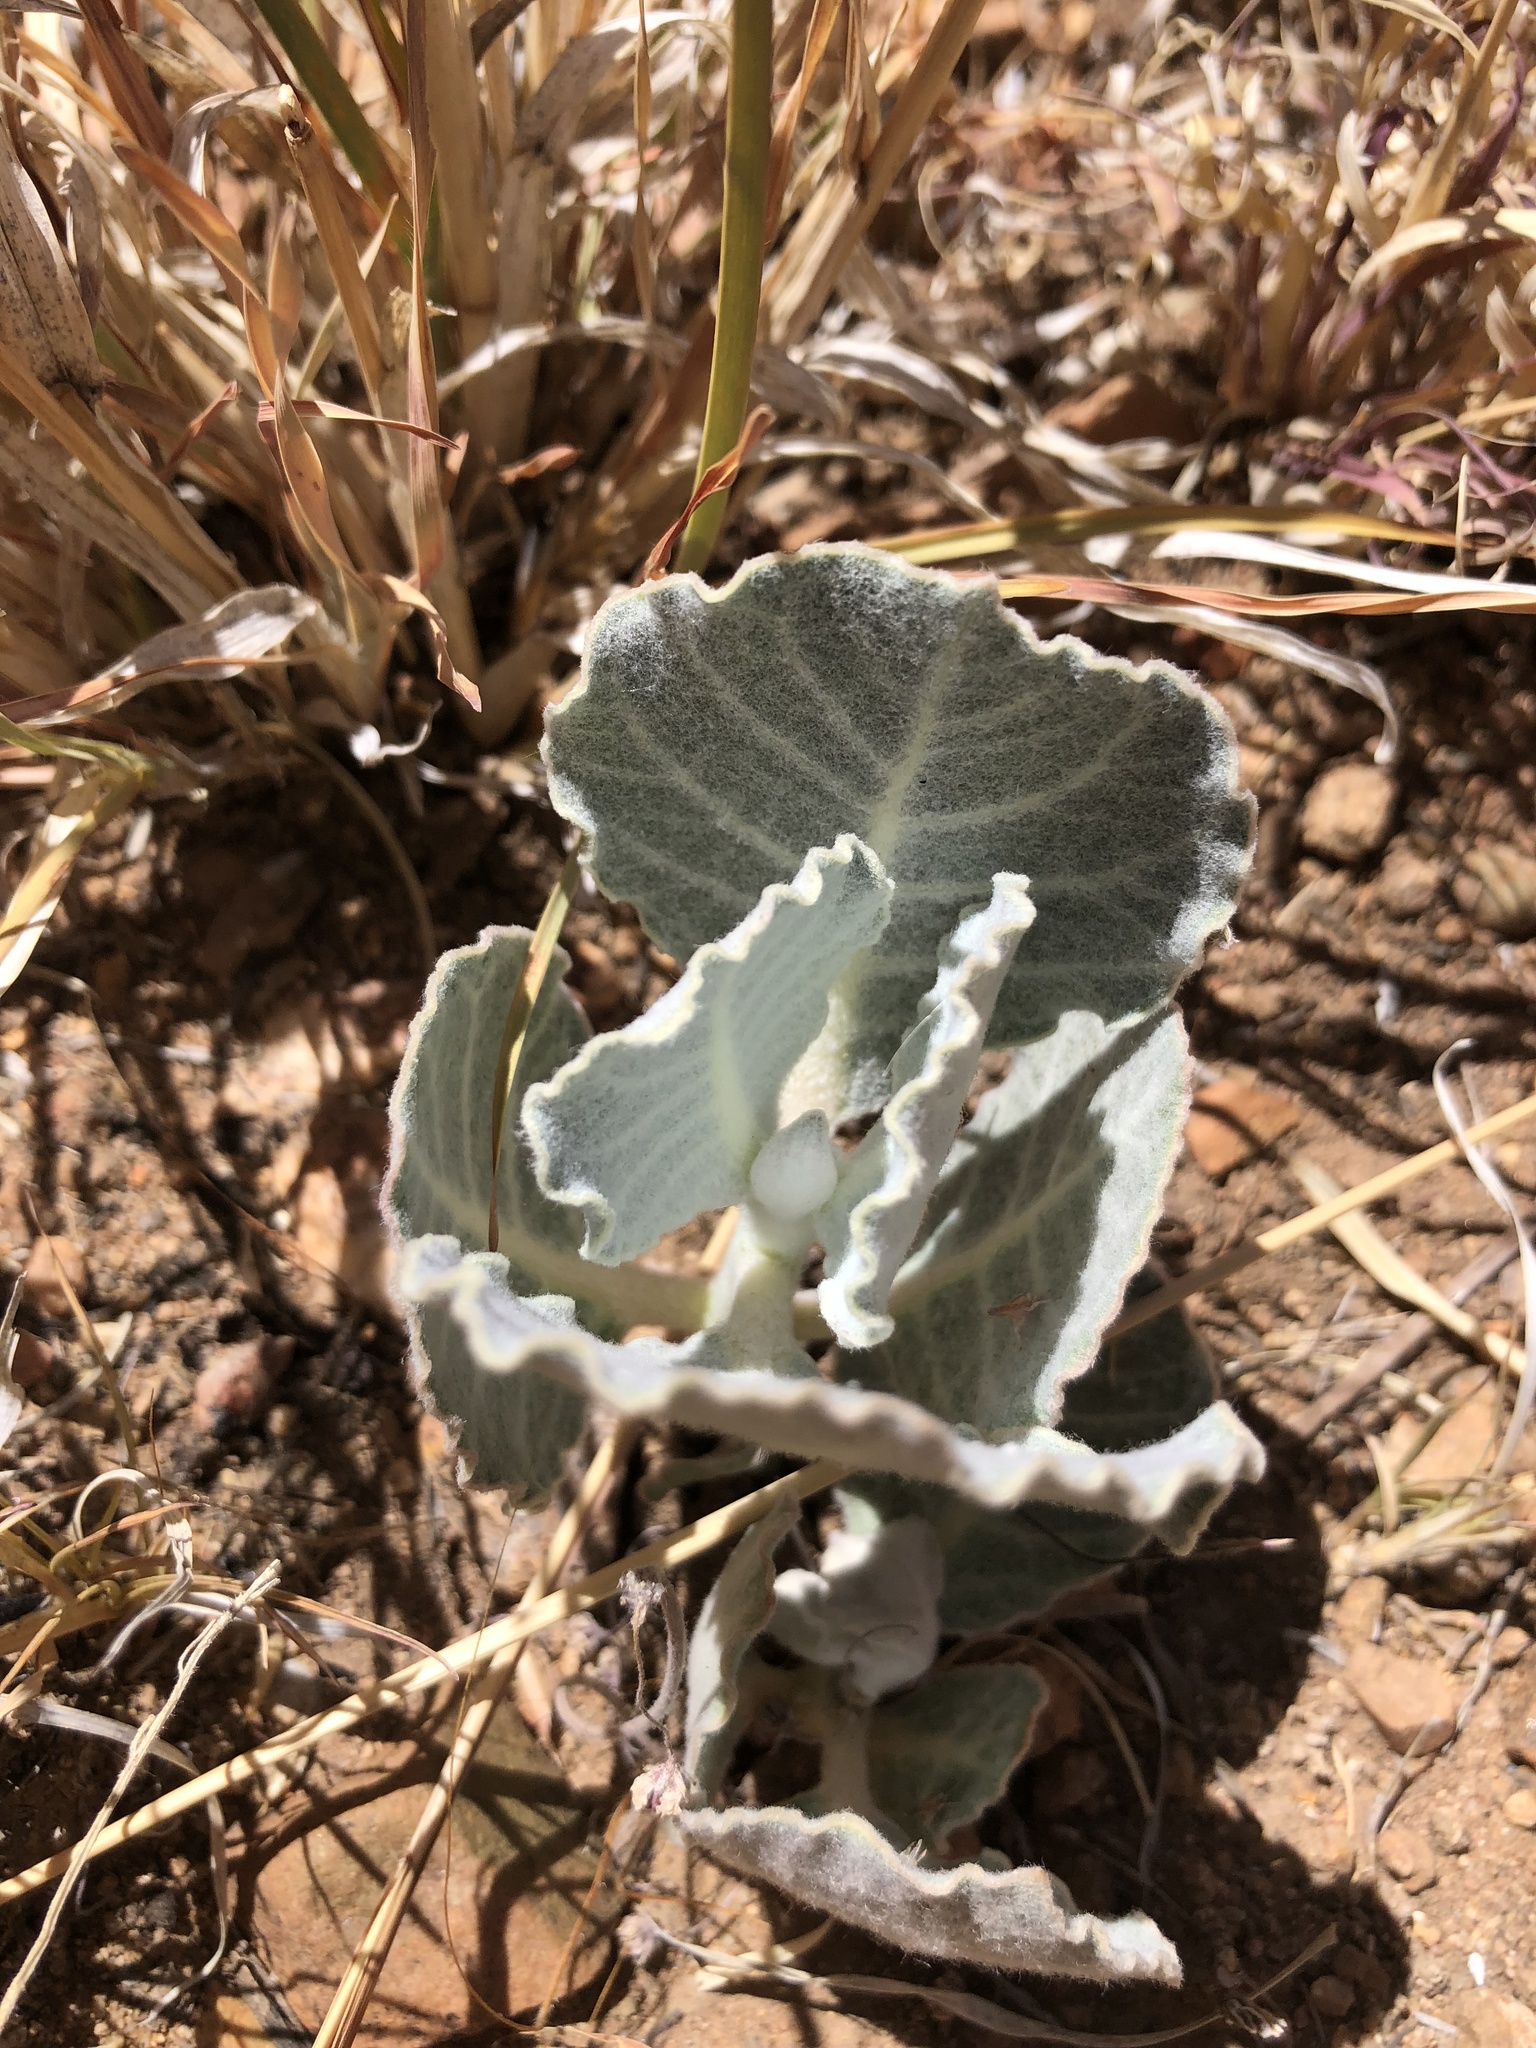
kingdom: Plantae
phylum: Tracheophyta
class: Magnoliopsida
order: Gentianales
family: Apocynaceae
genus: Asclepias
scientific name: Asclepias nummularia
